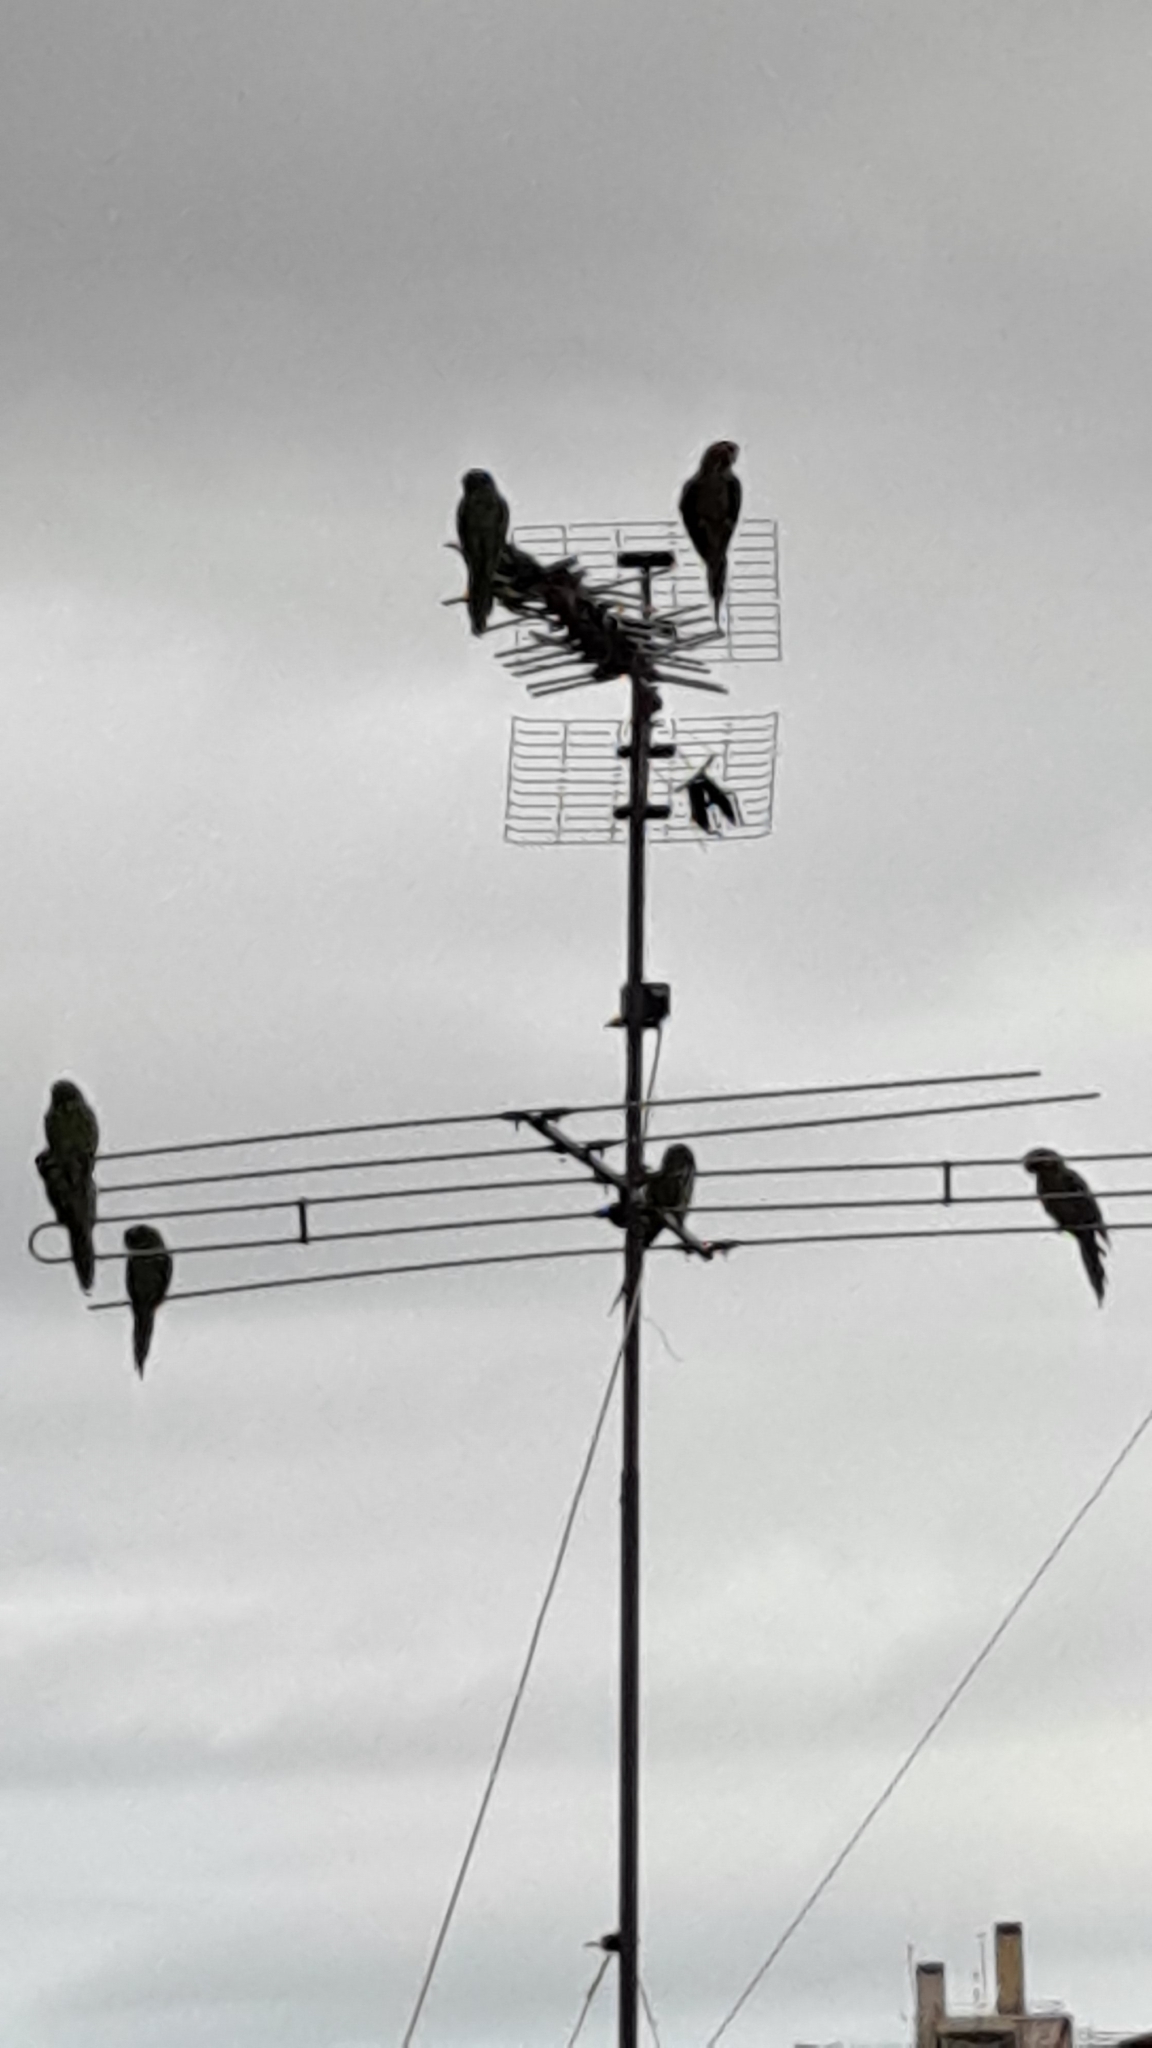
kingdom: Animalia
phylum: Chordata
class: Aves
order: Psittaciformes
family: Psittacidae
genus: Aratinga
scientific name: Aratinga mitrata
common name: Mitred parakeet
